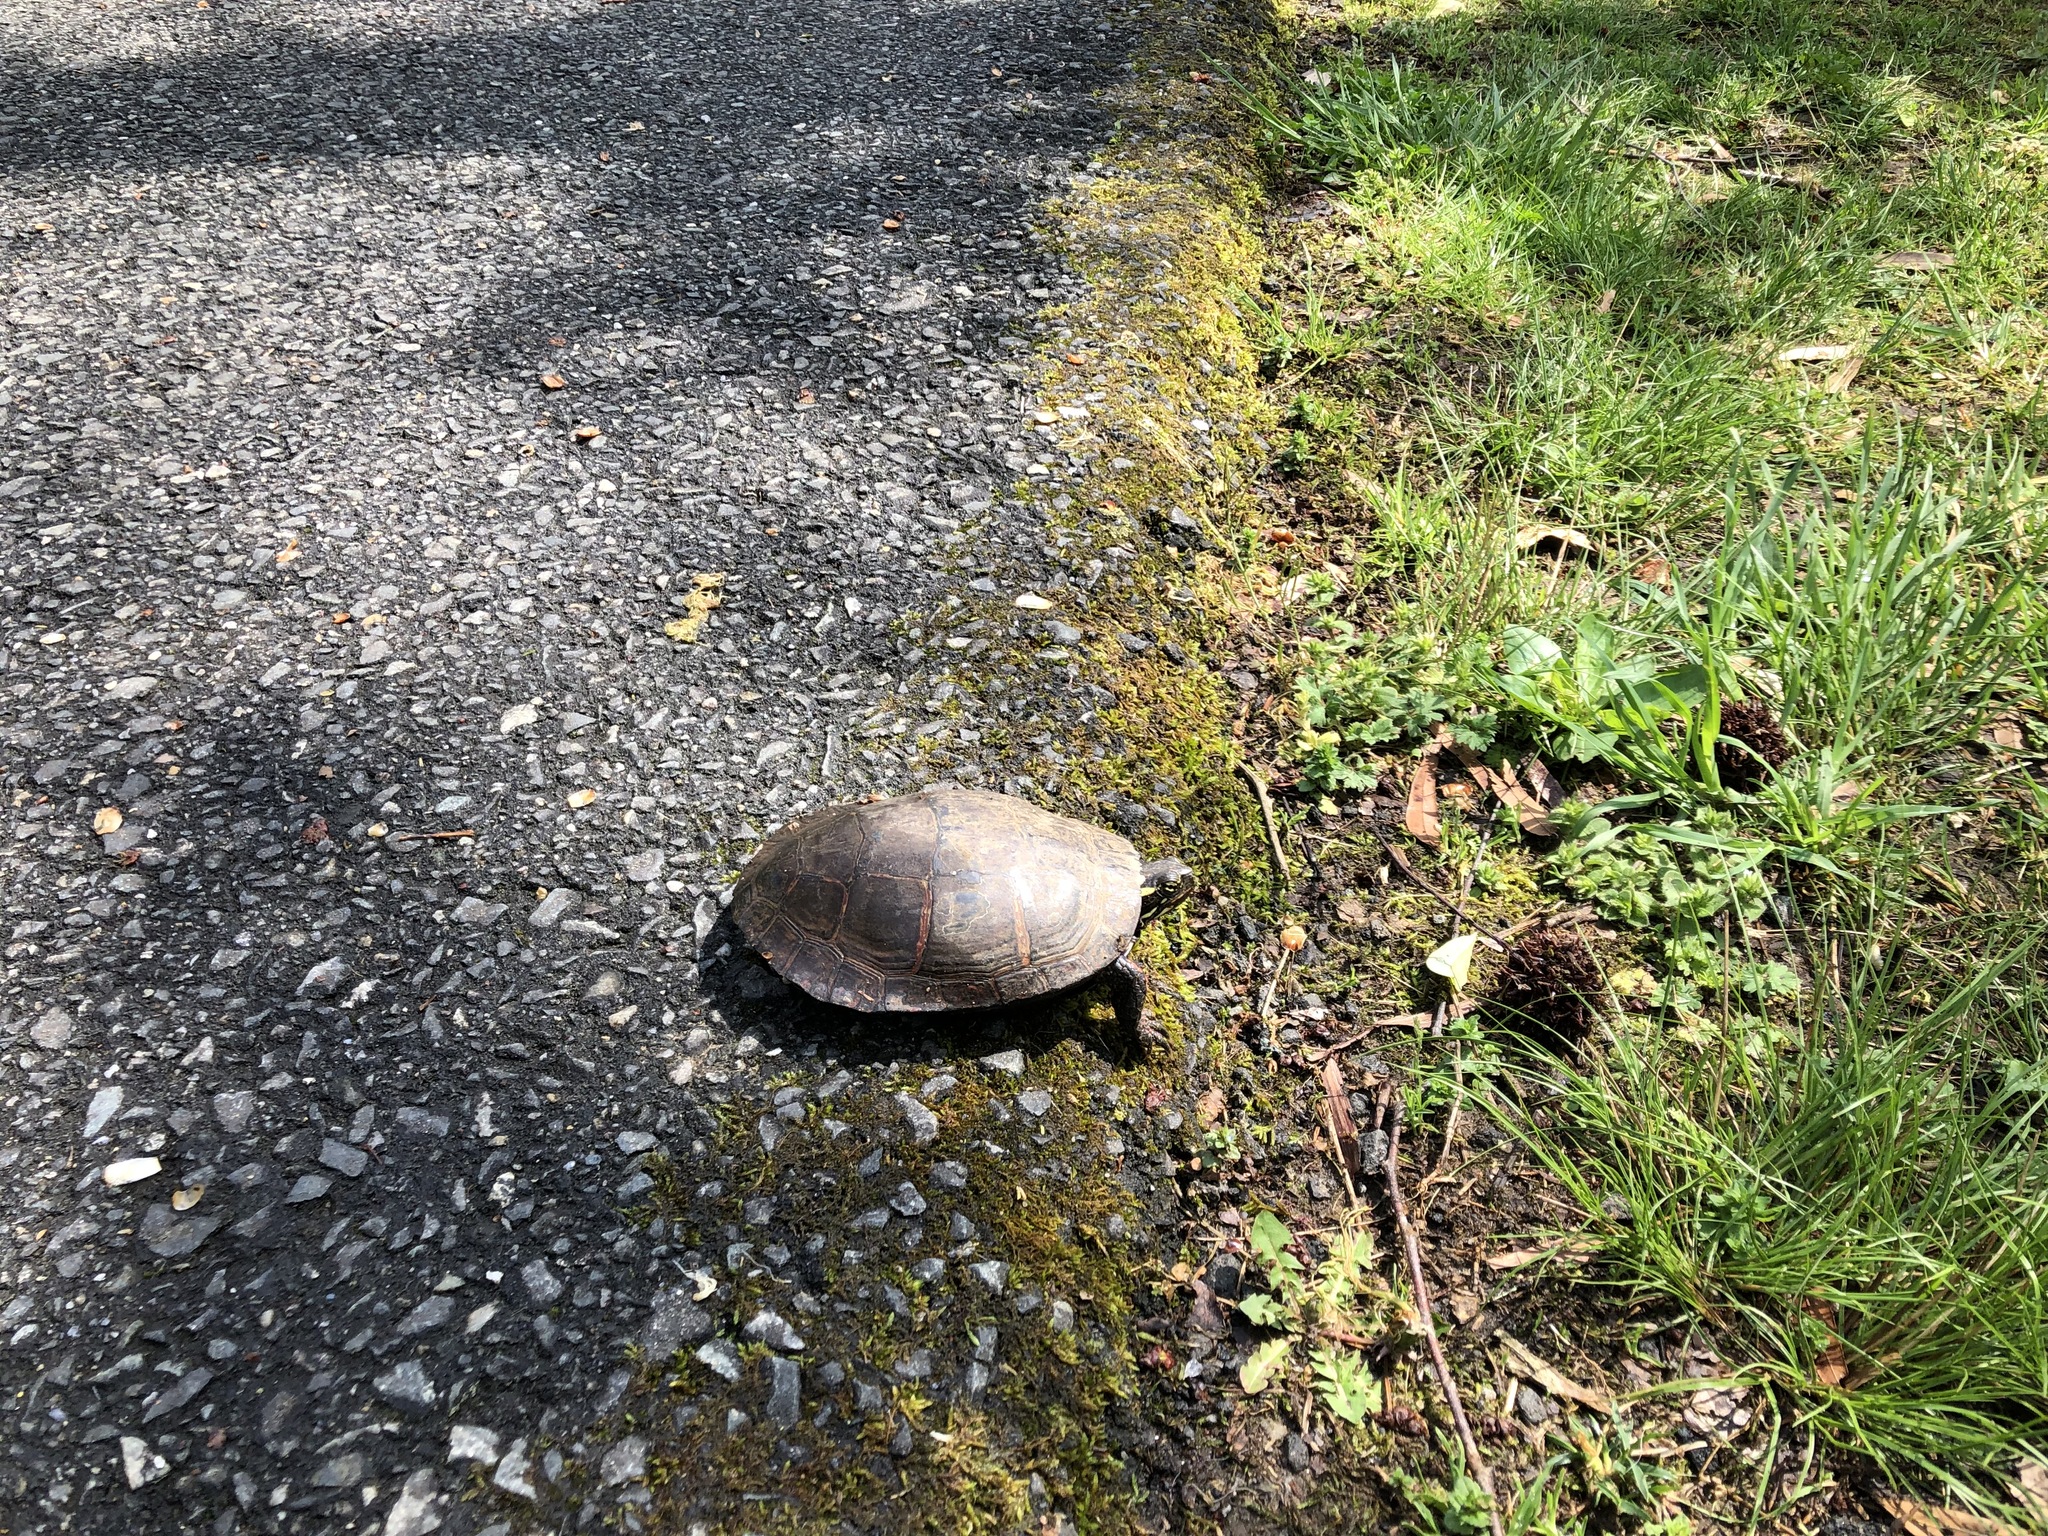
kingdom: Animalia
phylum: Chordata
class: Testudines
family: Emydidae
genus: Chrysemys
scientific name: Chrysemys picta
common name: Painted turtle
